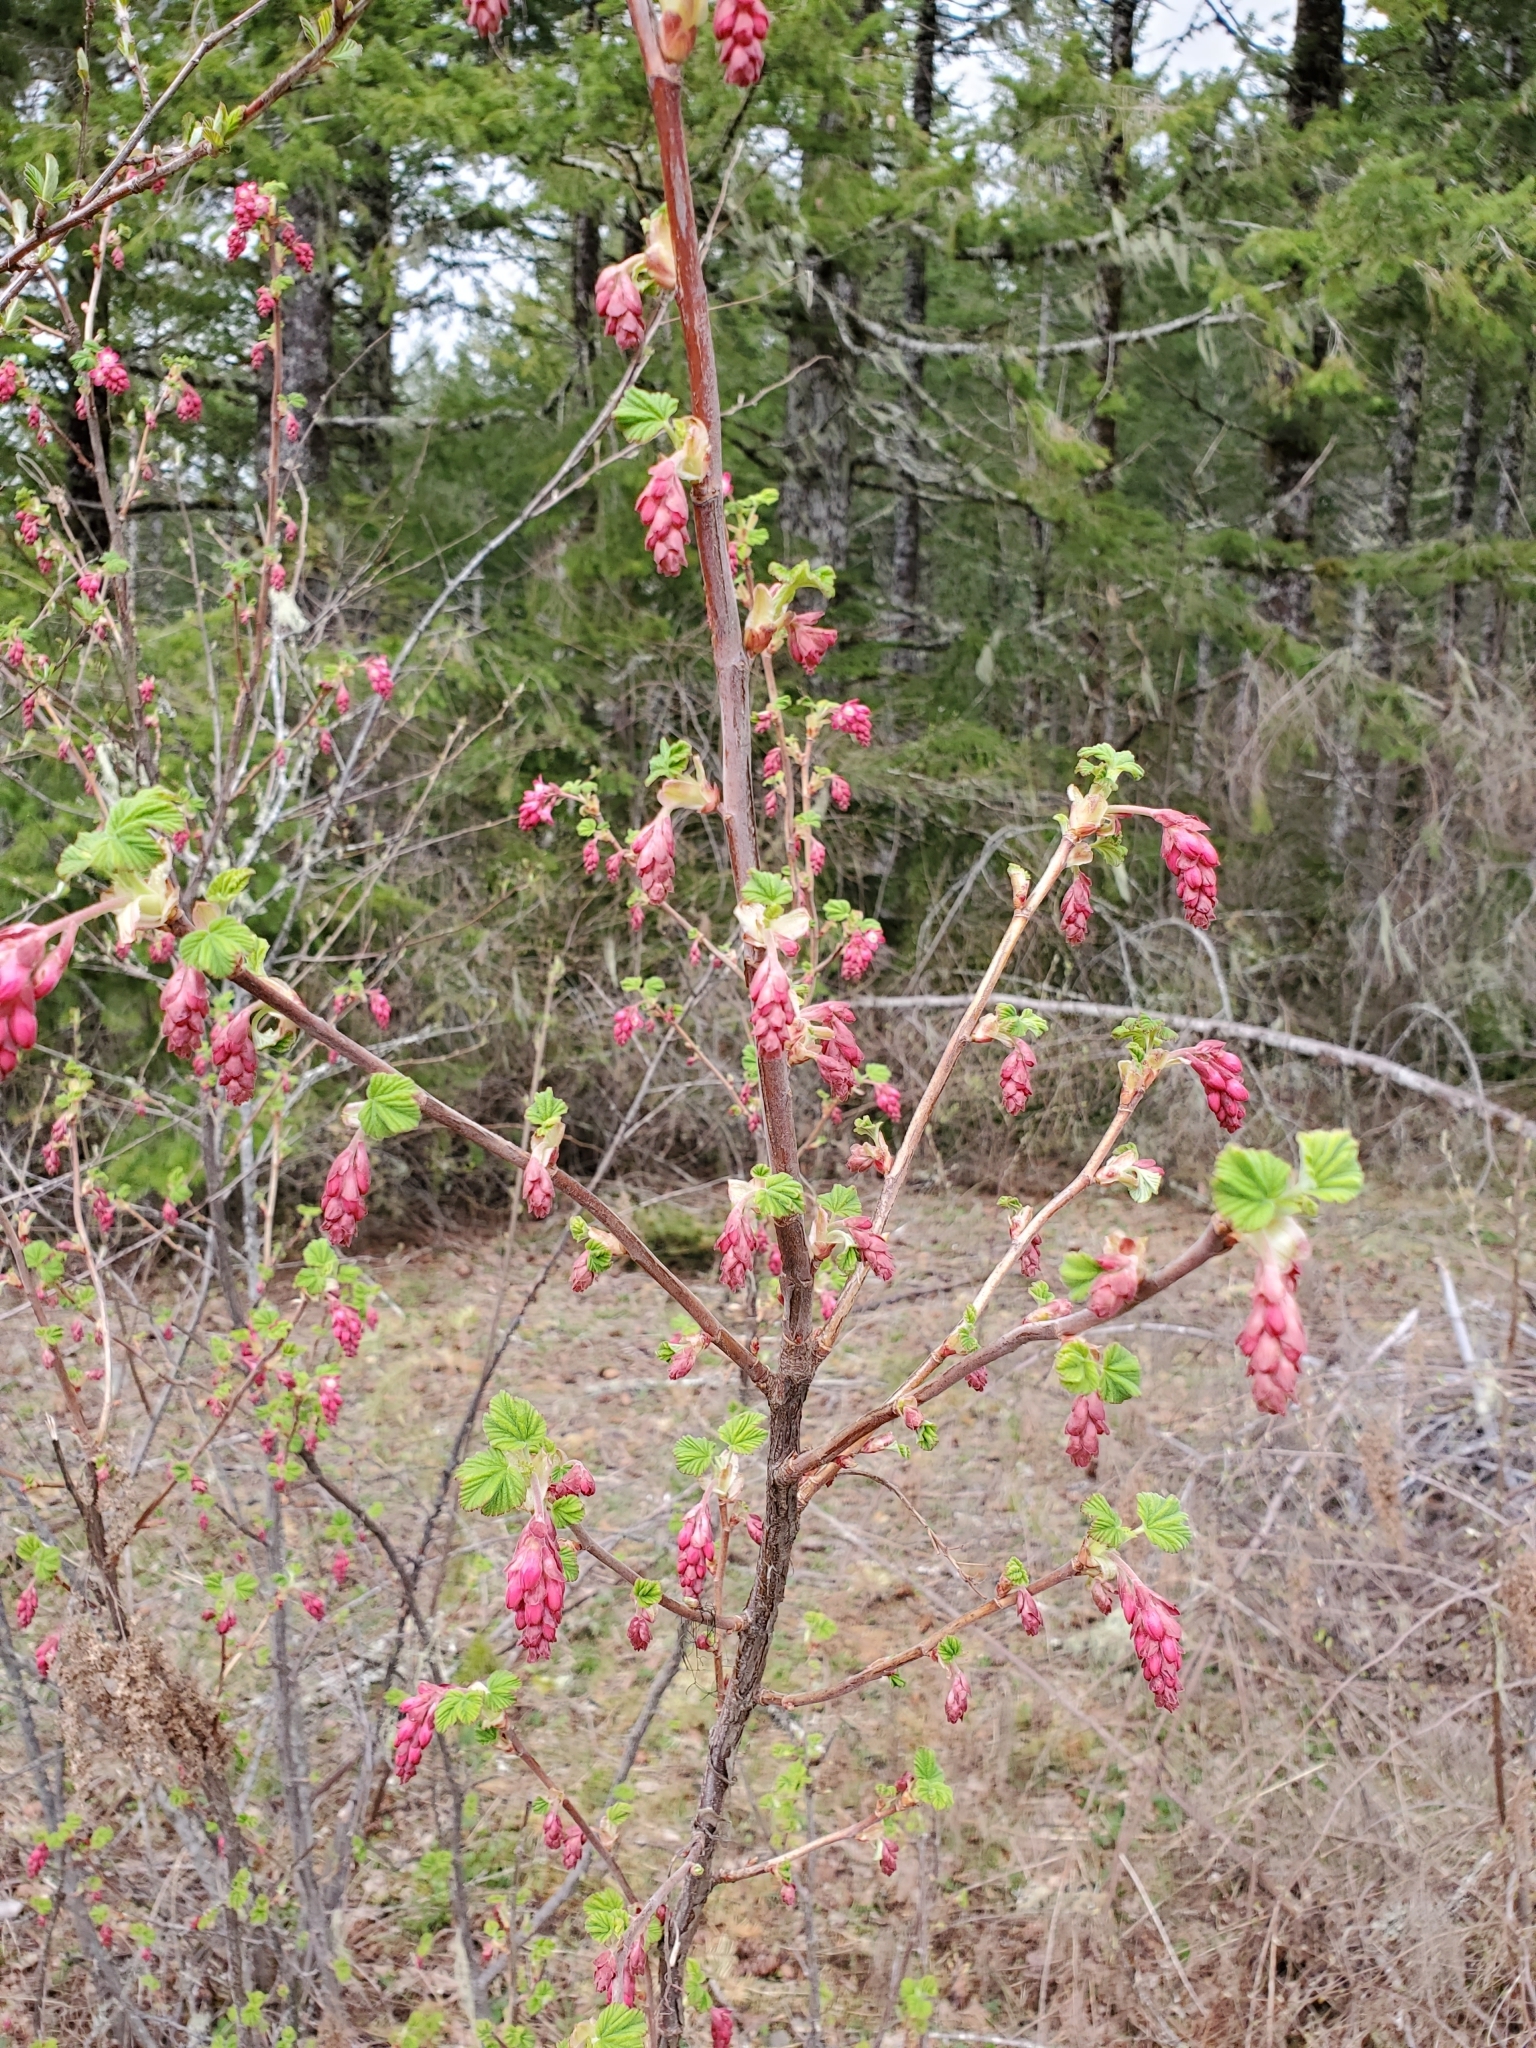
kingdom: Plantae
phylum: Tracheophyta
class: Magnoliopsida
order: Saxifragales
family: Grossulariaceae
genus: Ribes
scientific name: Ribes sanguineum
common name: Flowering currant
